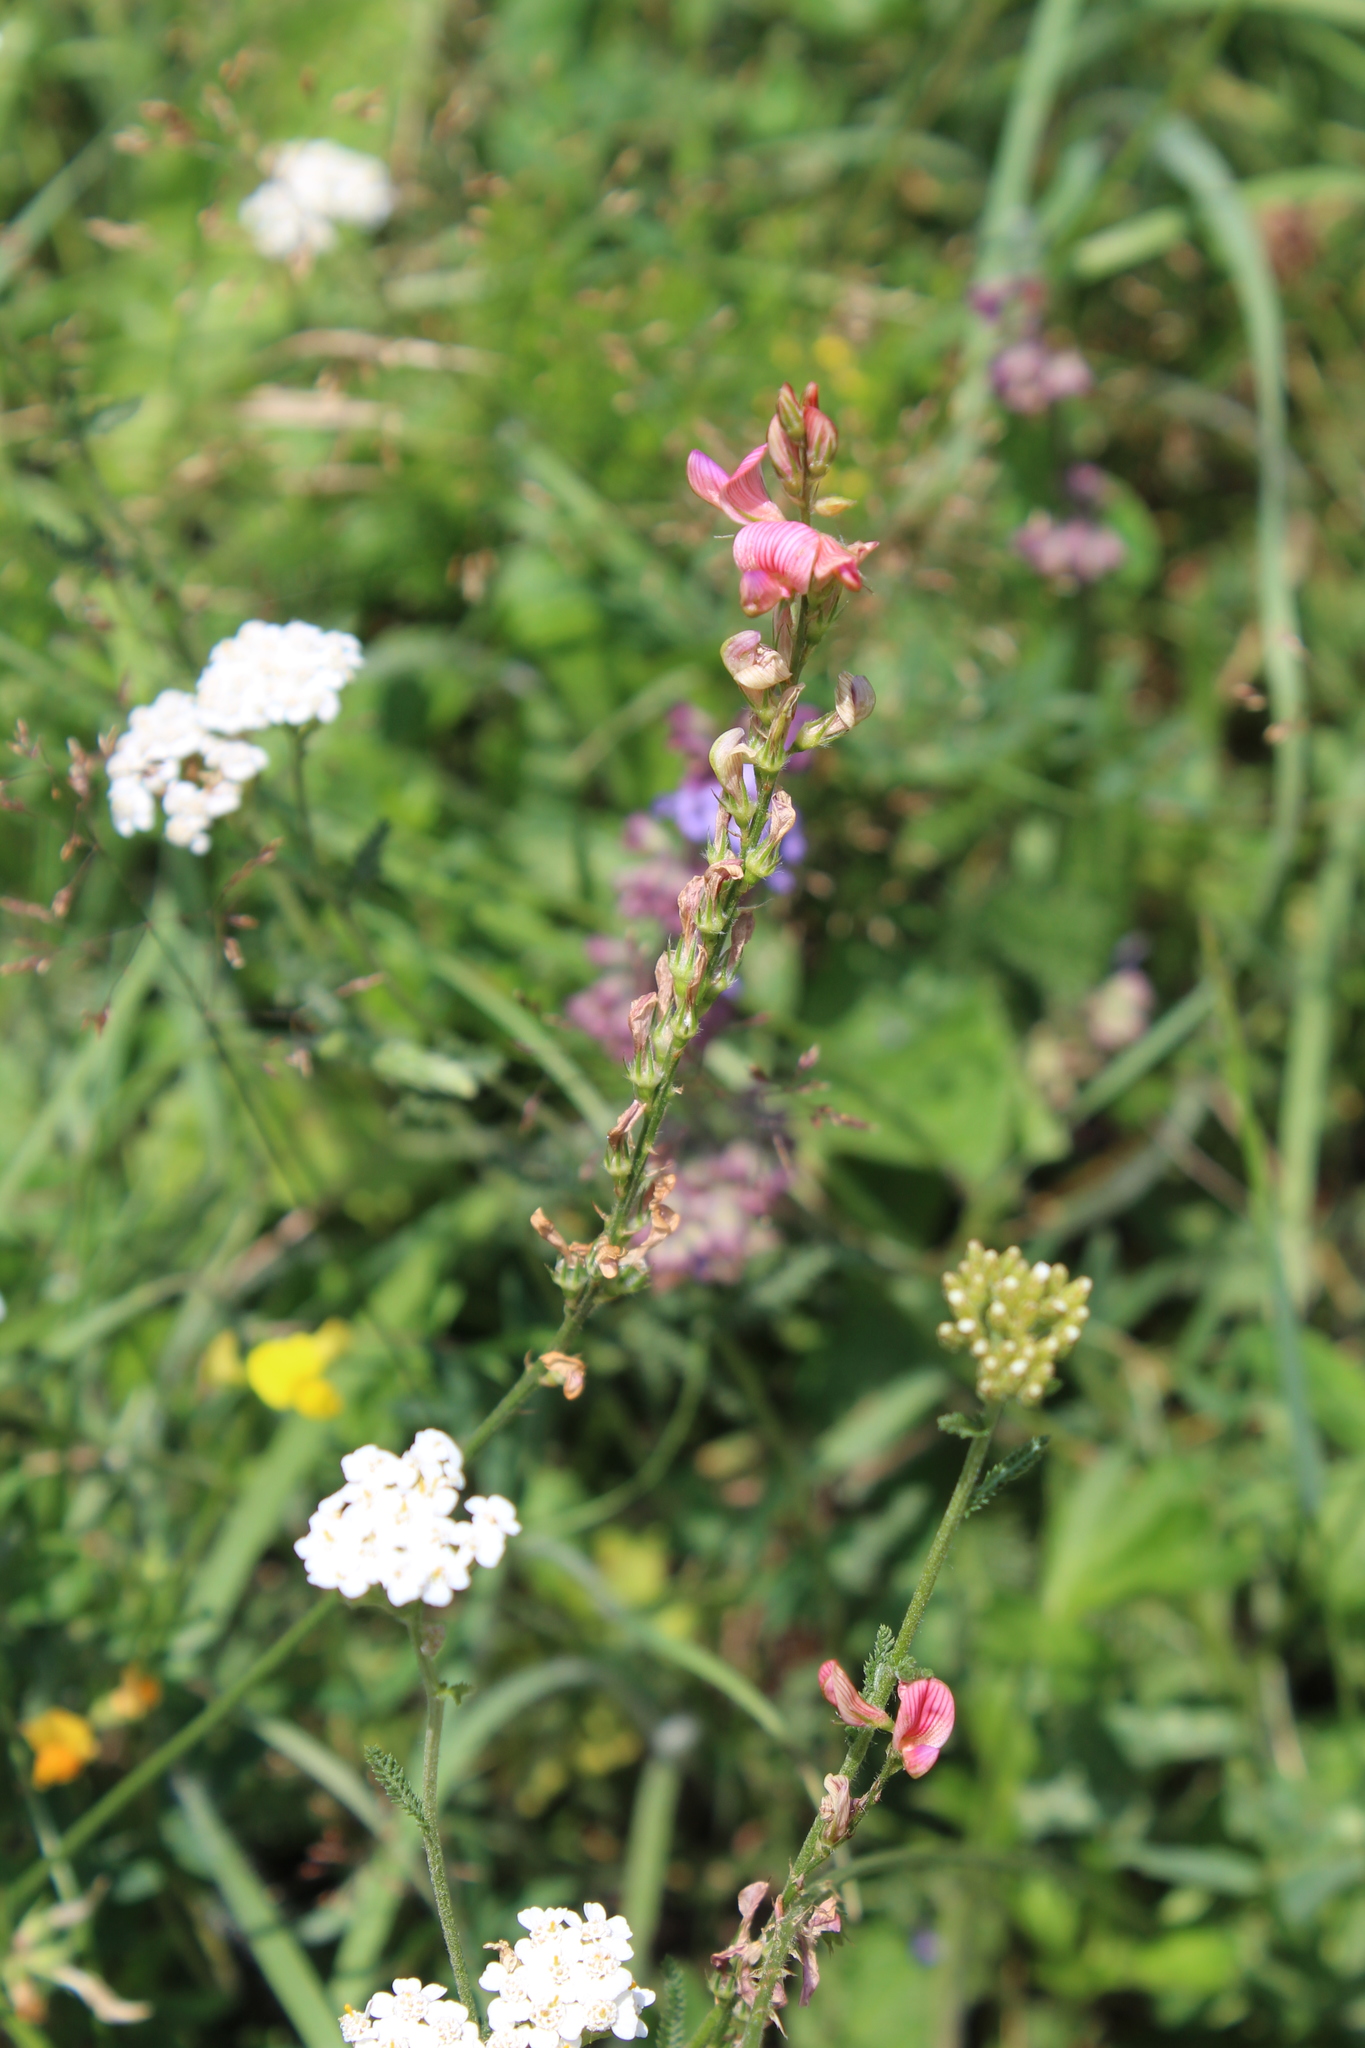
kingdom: Plantae
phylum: Tracheophyta
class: Magnoliopsida
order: Fabales
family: Fabaceae
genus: Onobrychis
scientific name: Onobrychis inermis
